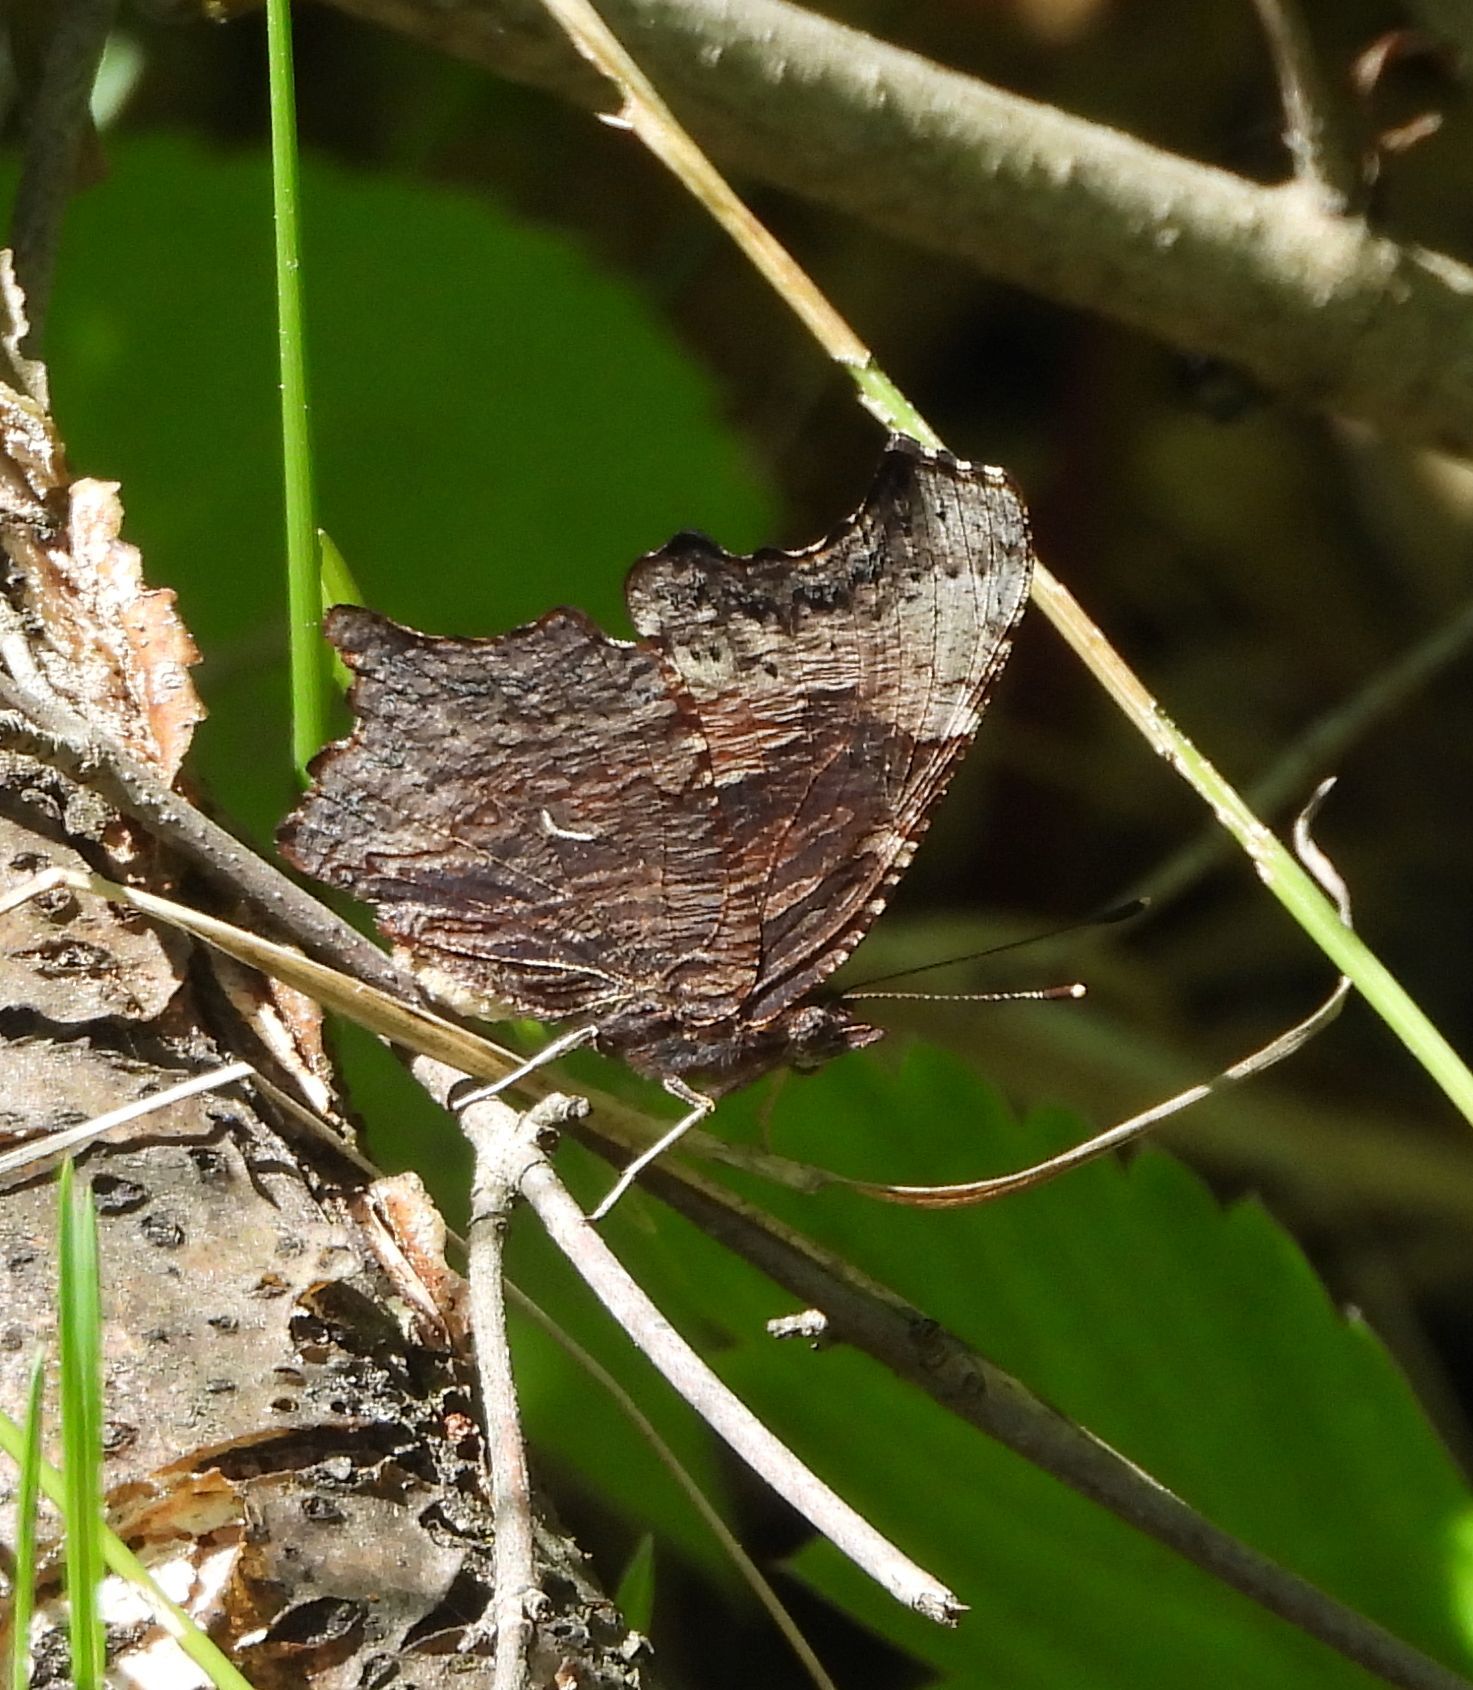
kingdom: Animalia
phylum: Arthropoda
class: Insecta
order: Lepidoptera
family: Nymphalidae
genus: Polygonia
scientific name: Polygonia progne
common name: Gray comma
